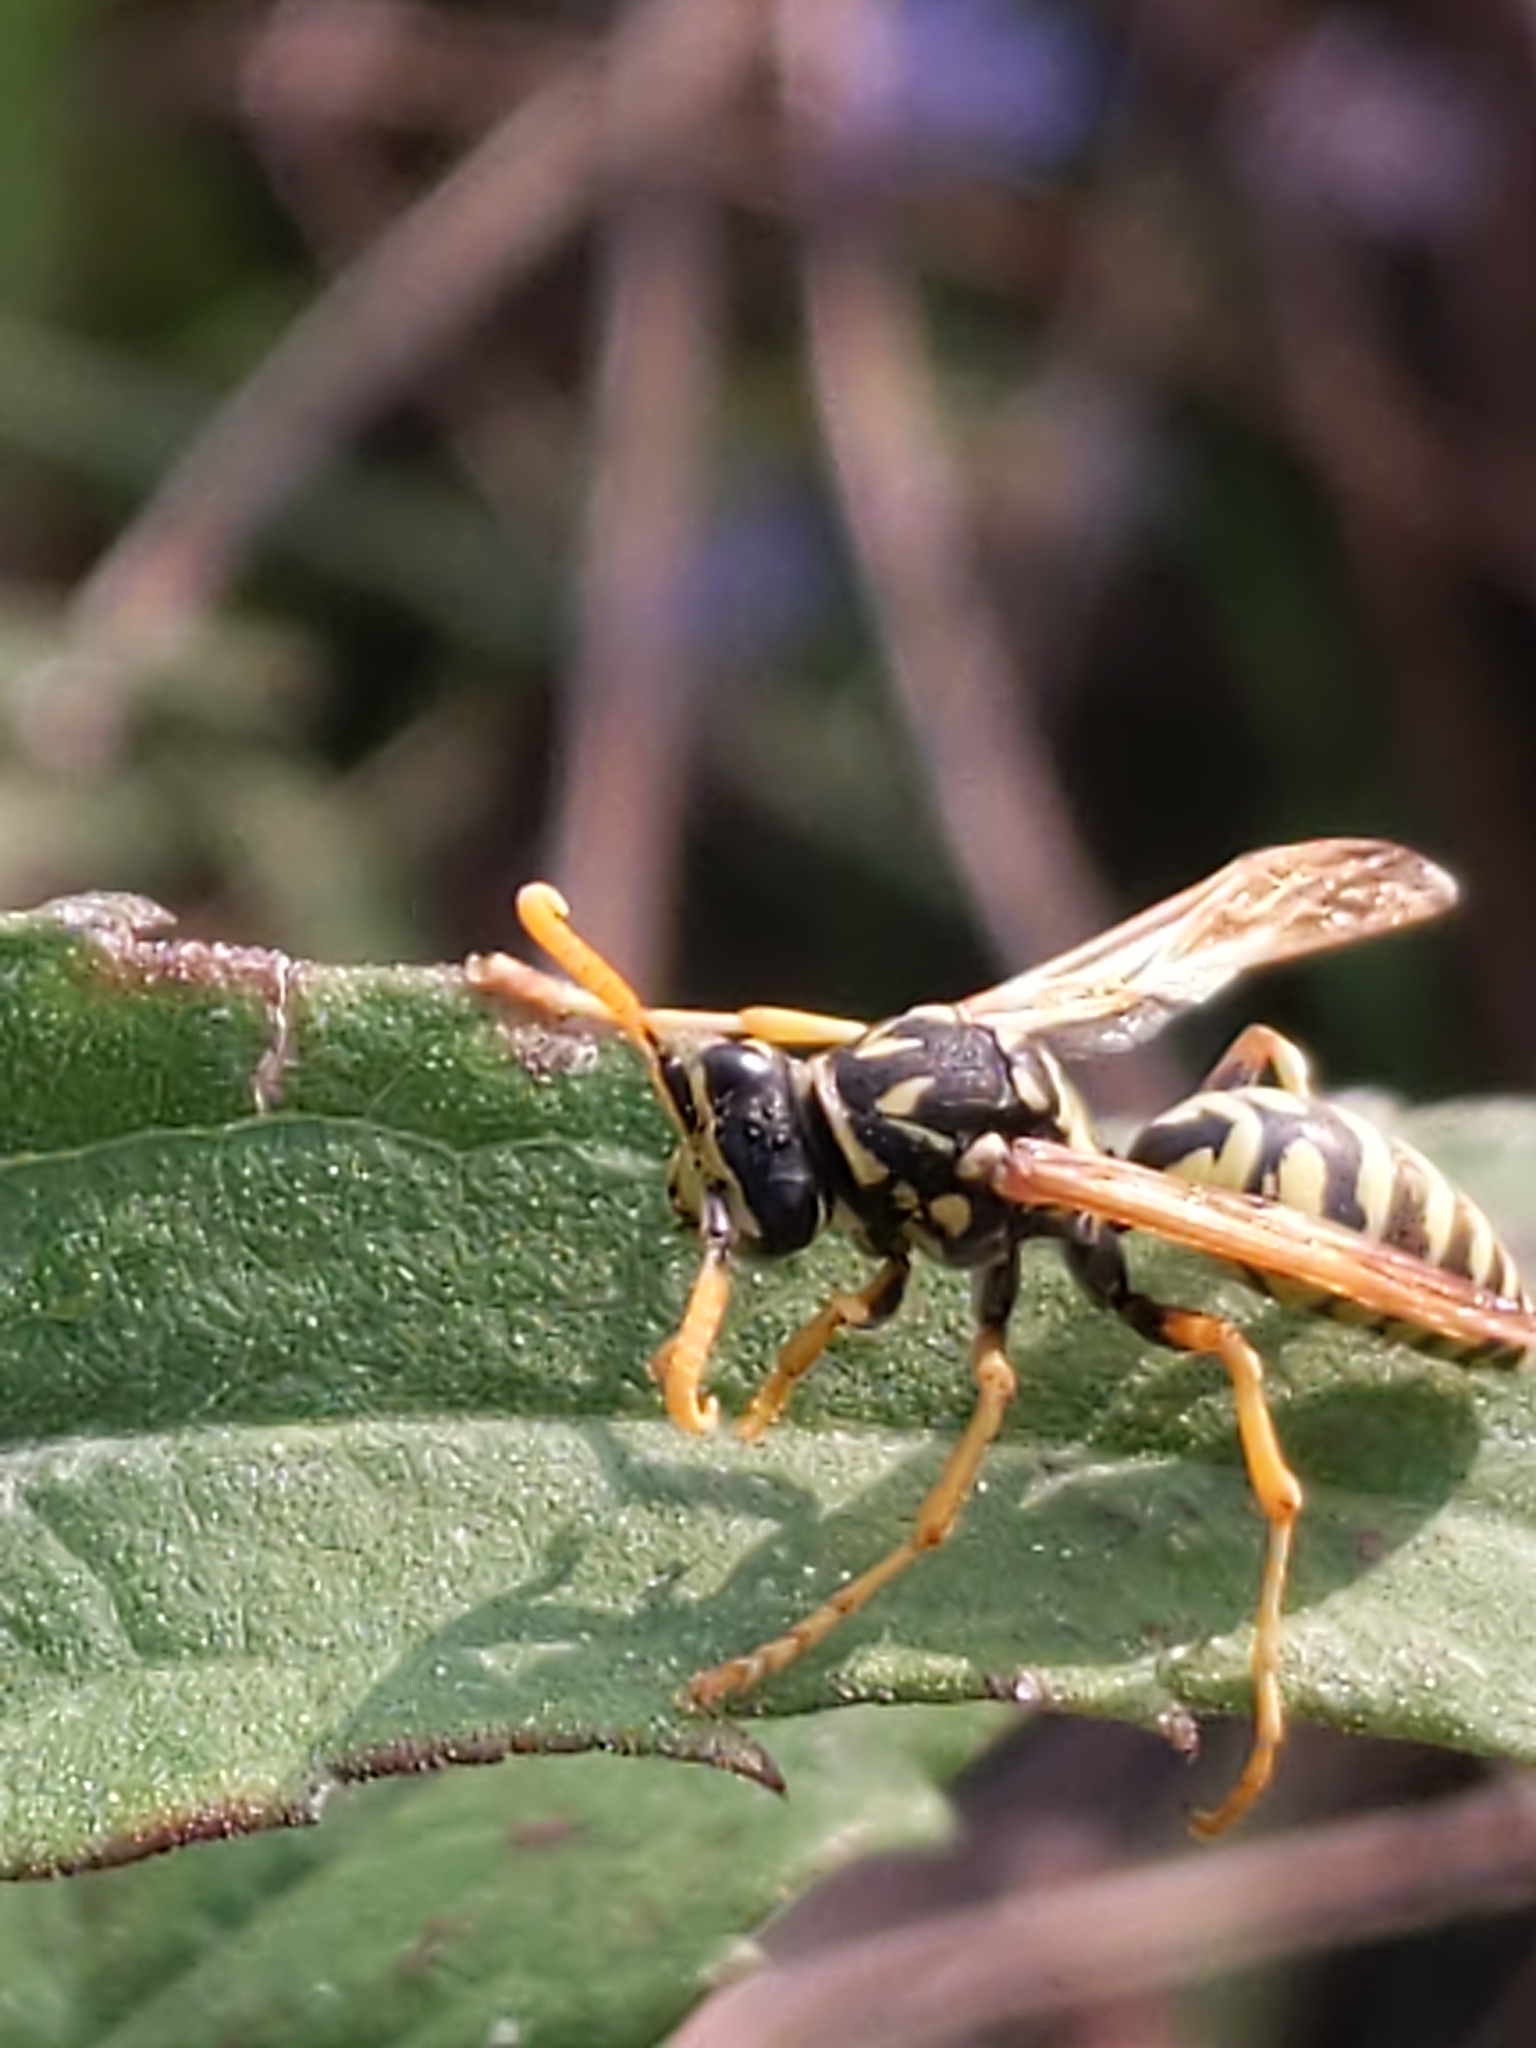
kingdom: Animalia
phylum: Arthropoda
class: Insecta
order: Hymenoptera
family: Eumenidae
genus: Polistes
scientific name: Polistes dominula
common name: Paper wasp
